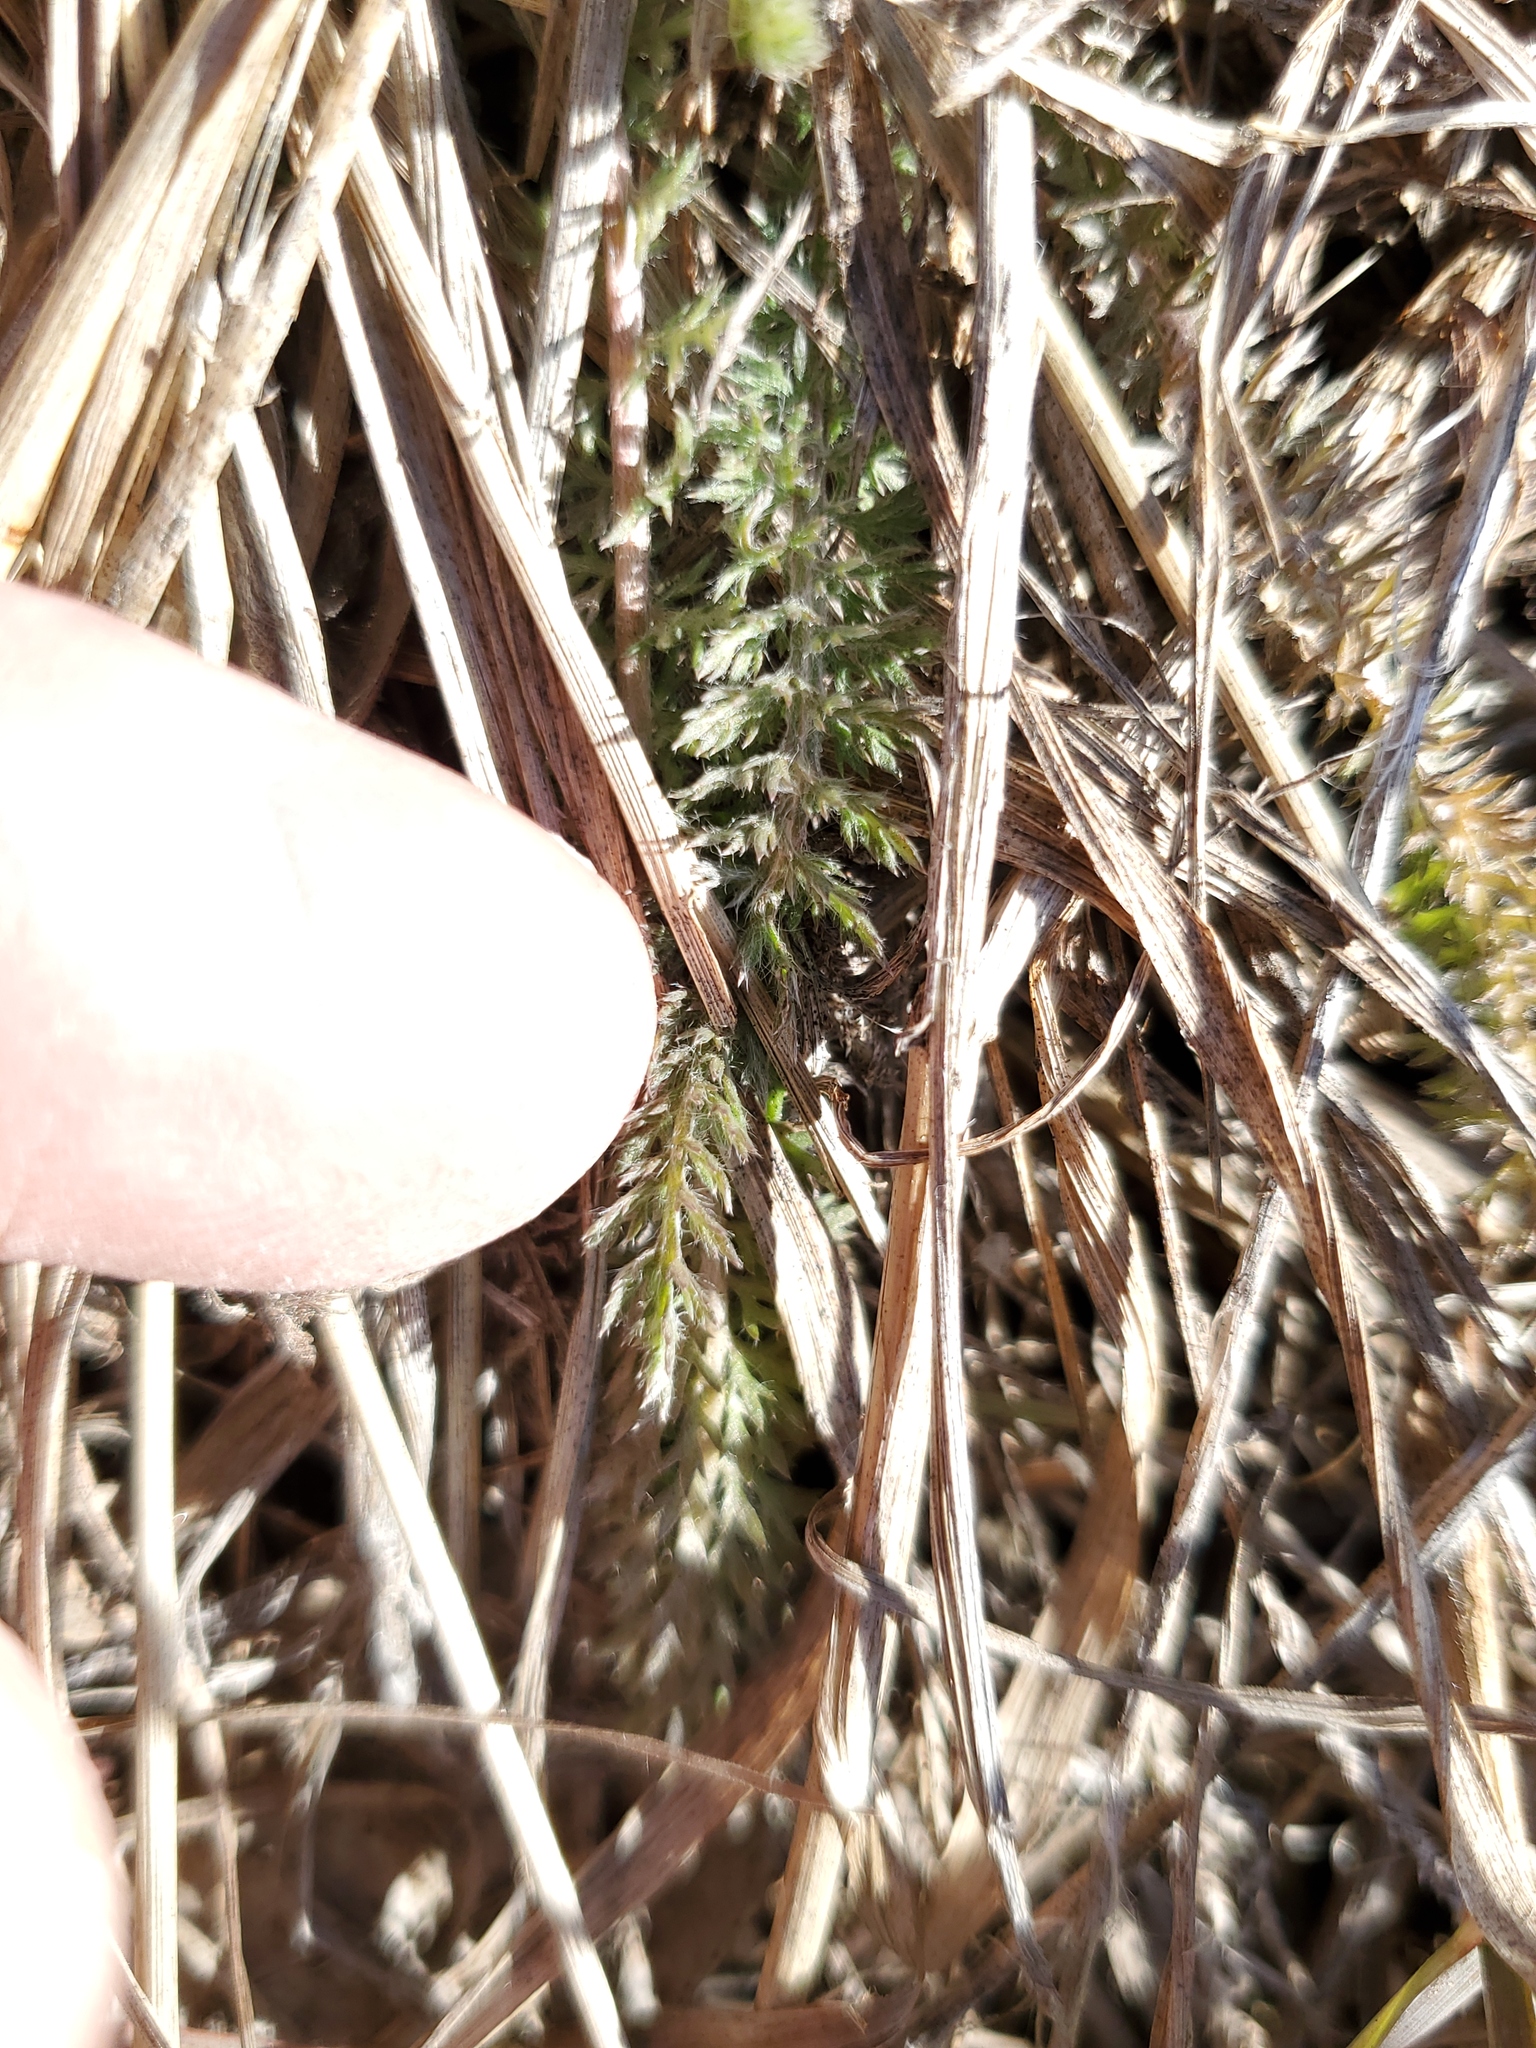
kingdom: Plantae
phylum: Tracheophyta
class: Magnoliopsida
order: Asterales
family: Asteraceae
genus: Achillea
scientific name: Achillea millefolium
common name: Yarrow
